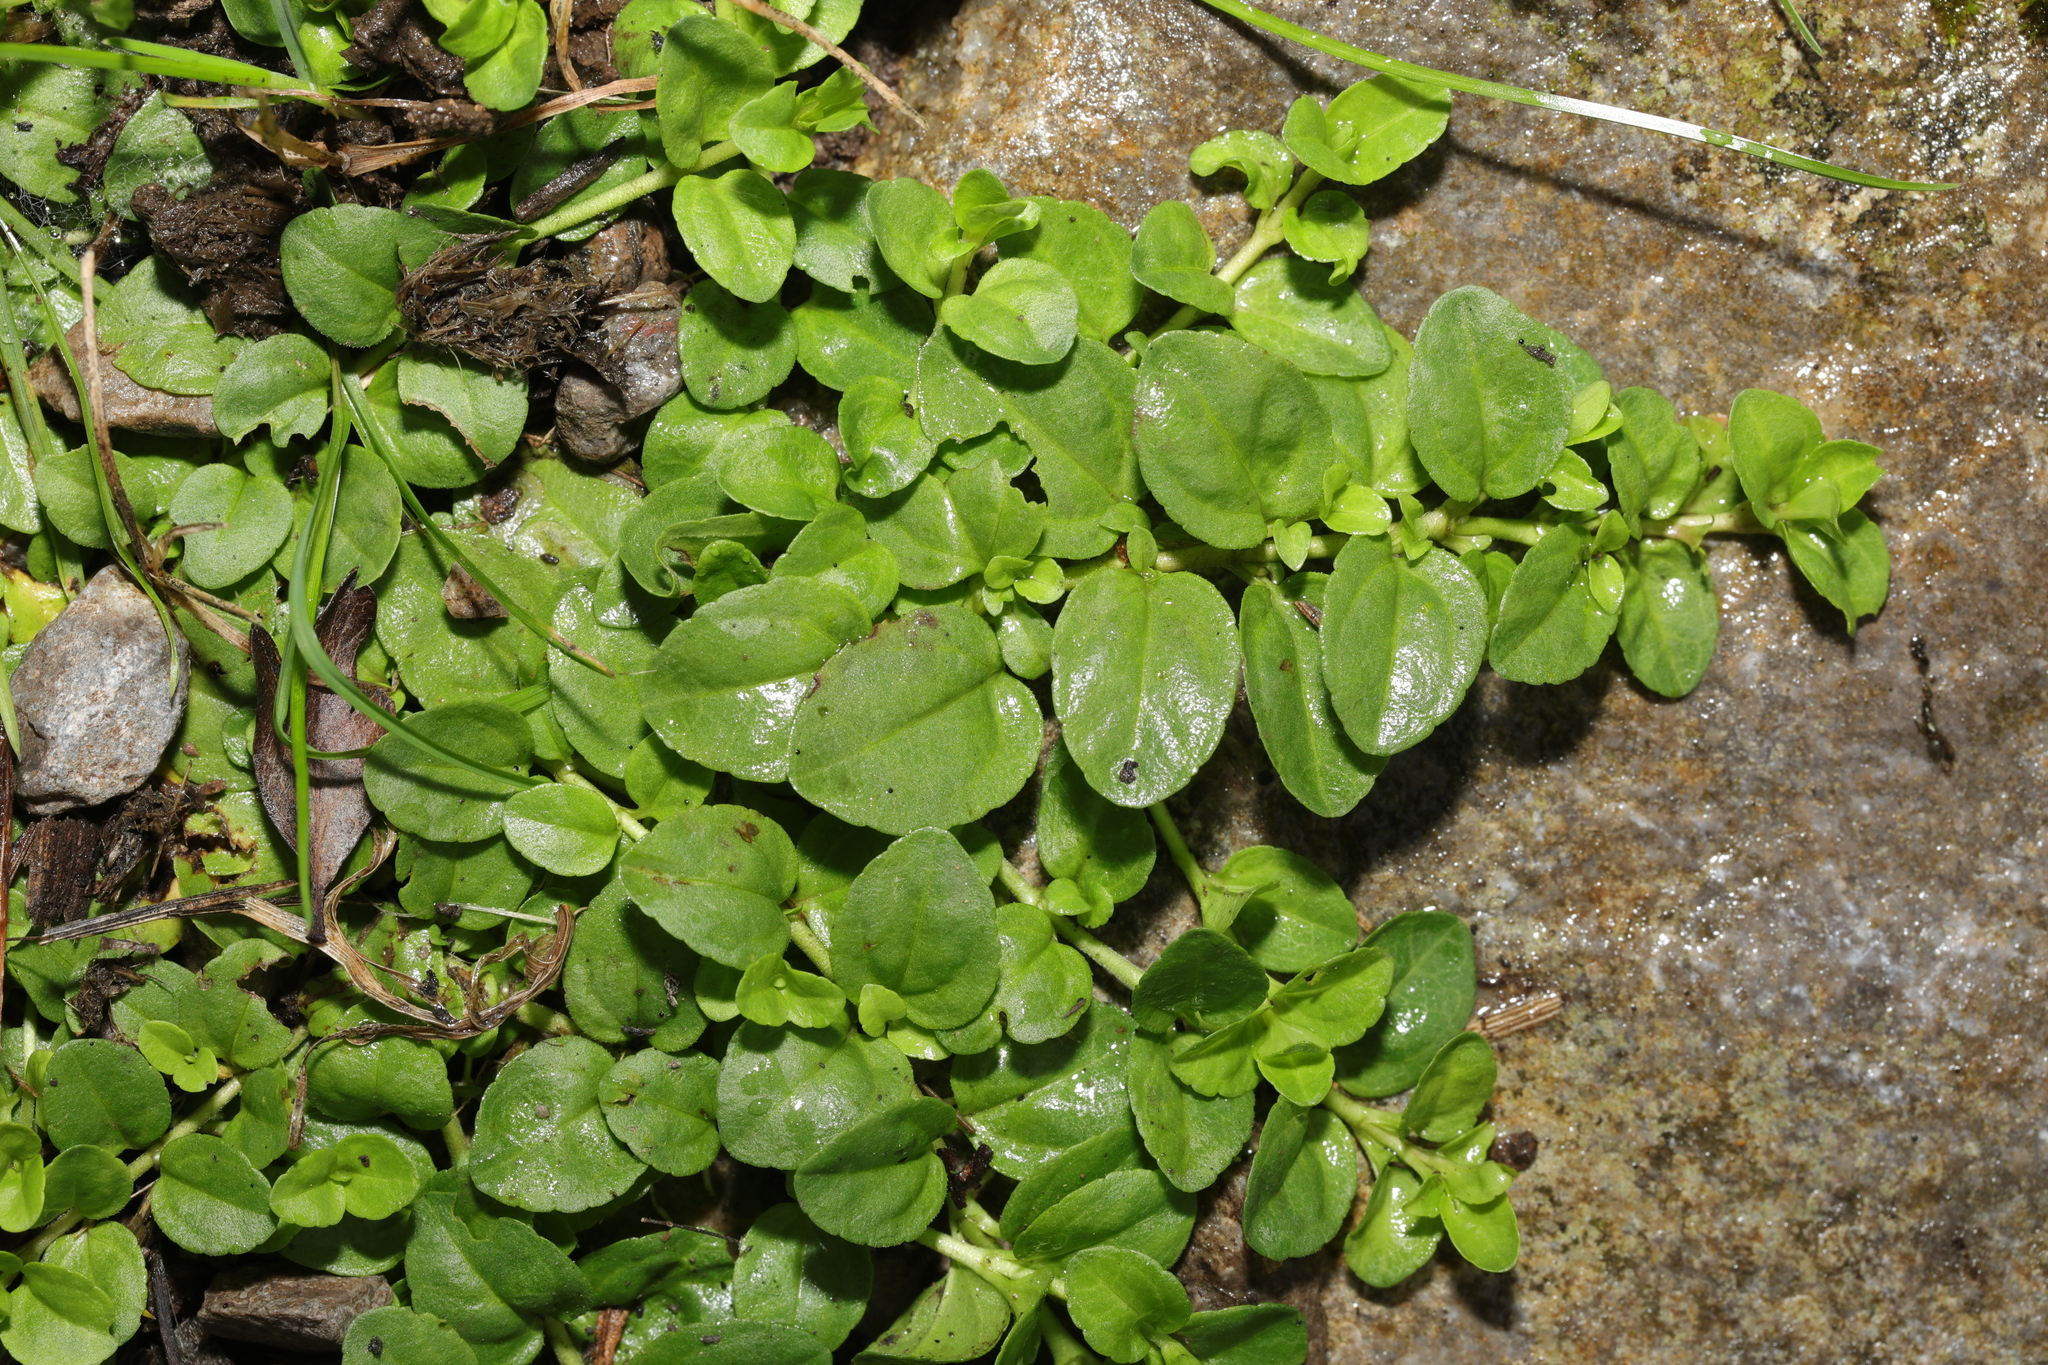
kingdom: Plantae
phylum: Tracheophyta
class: Magnoliopsida
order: Lamiales
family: Plantaginaceae
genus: Veronica
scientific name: Veronica serpyllifolia
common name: Thyme-leaved speedwell
